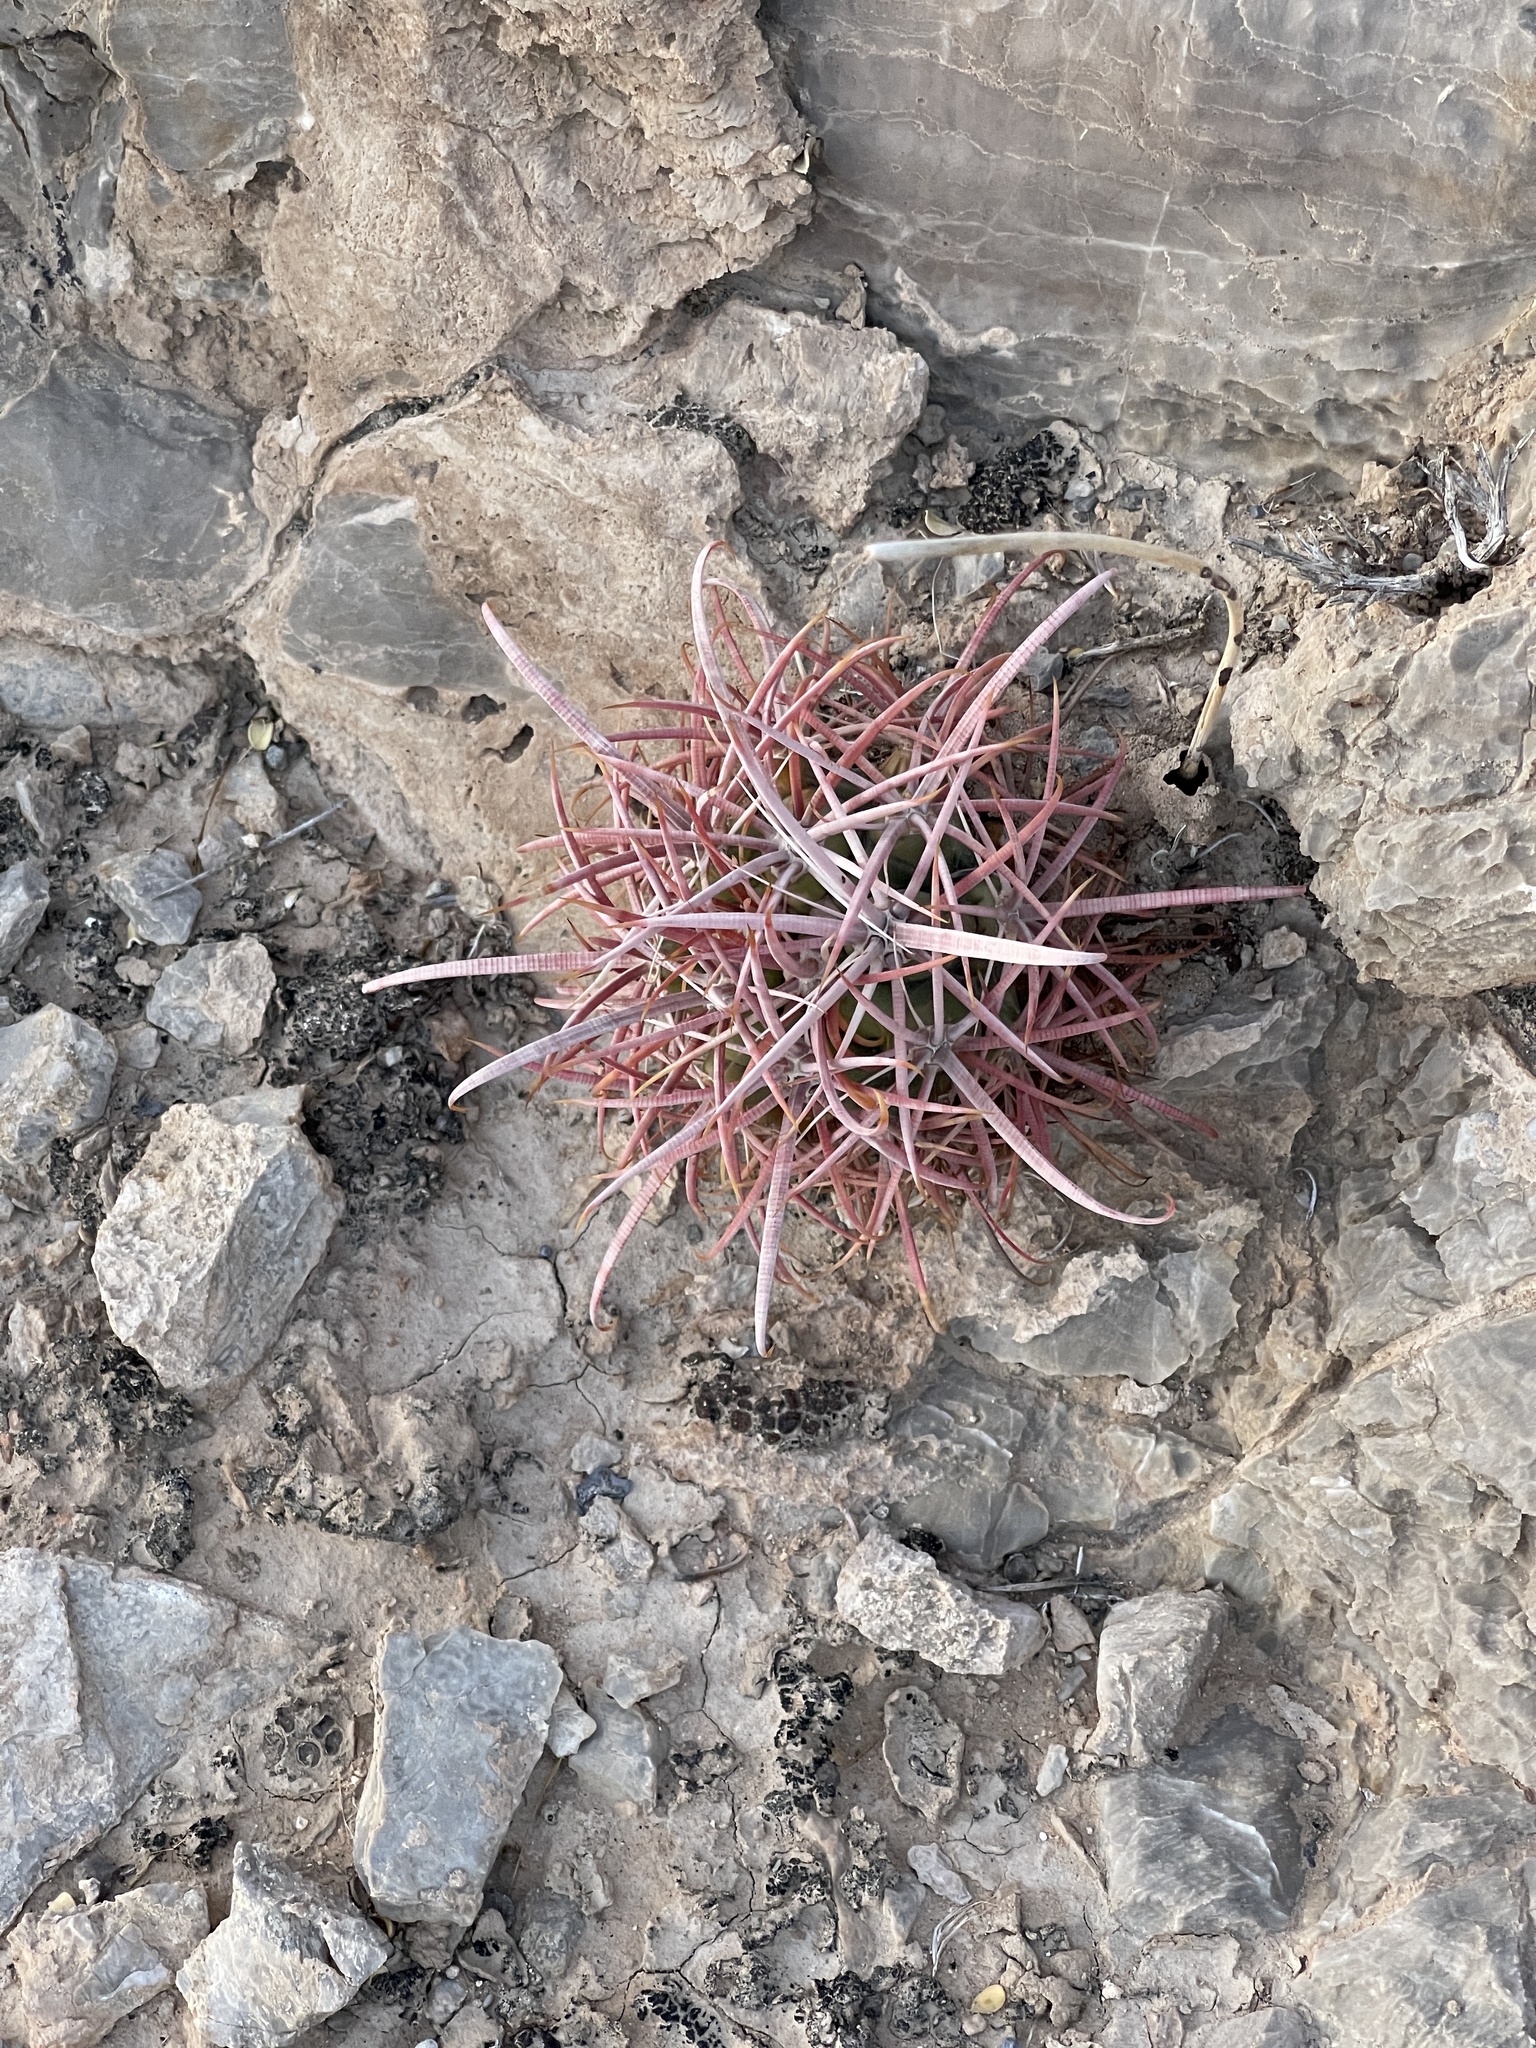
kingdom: Plantae
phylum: Tracheophyta
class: Magnoliopsida
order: Caryophyllales
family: Cactaceae
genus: Echinocactus
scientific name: Echinocactus polycephalus
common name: Cottontop cactus
